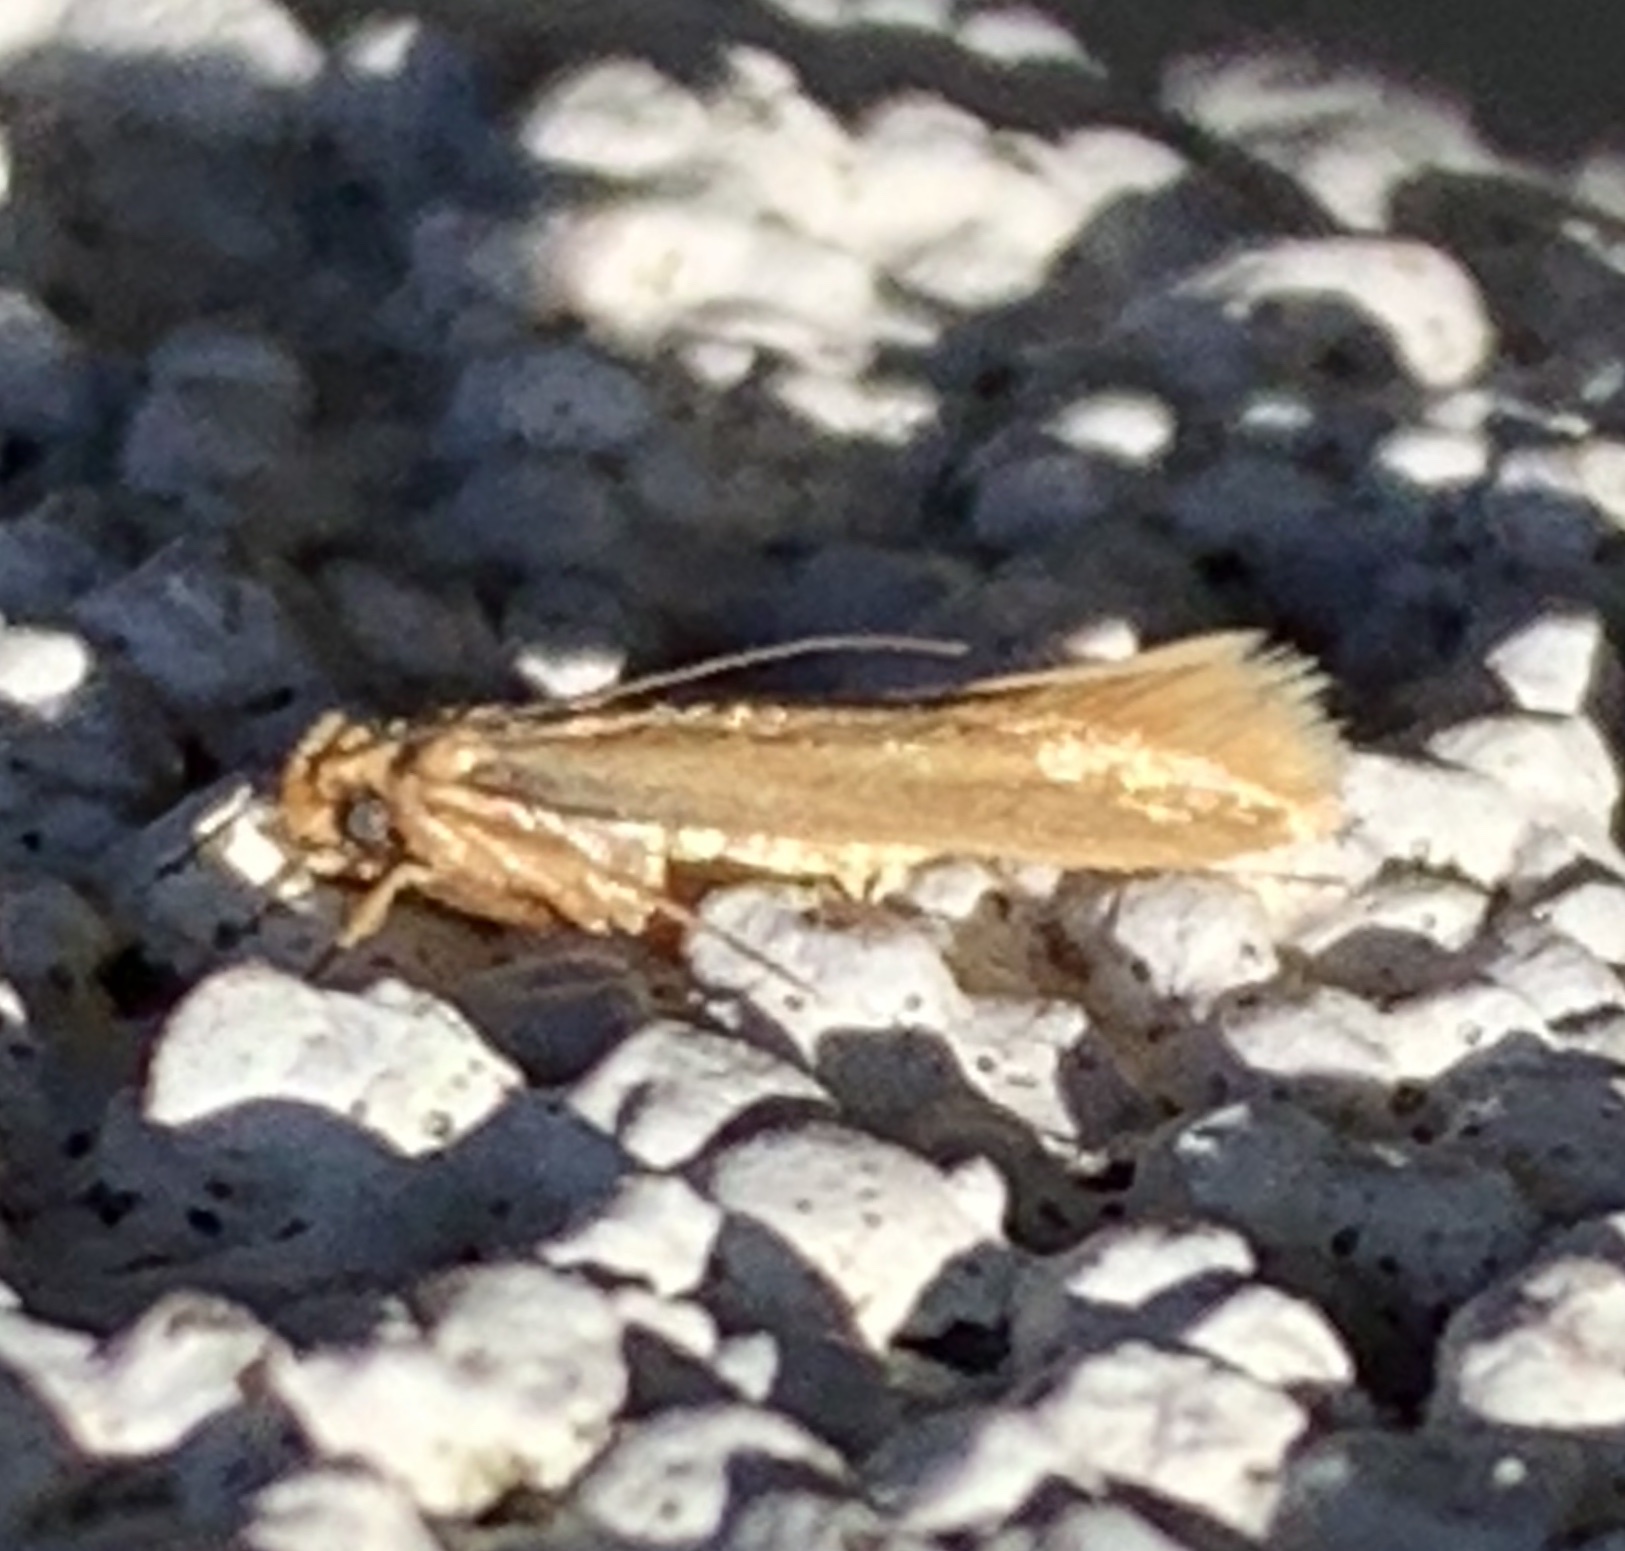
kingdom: Animalia
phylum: Arthropoda
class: Insecta
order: Lepidoptera
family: Tineidae
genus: Tineola
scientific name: Tineola bisselliella
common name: Webbing clothes moth
